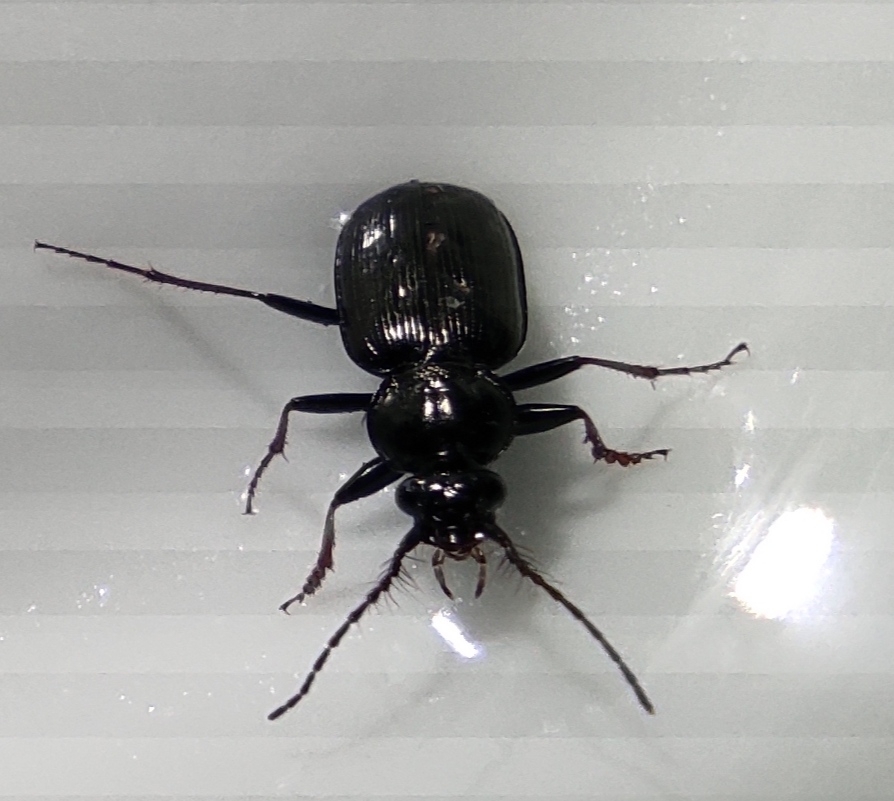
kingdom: Animalia
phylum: Arthropoda
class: Insecta
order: Coleoptera
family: Carabidae
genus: Loricera
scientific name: Loricera pilicornis
